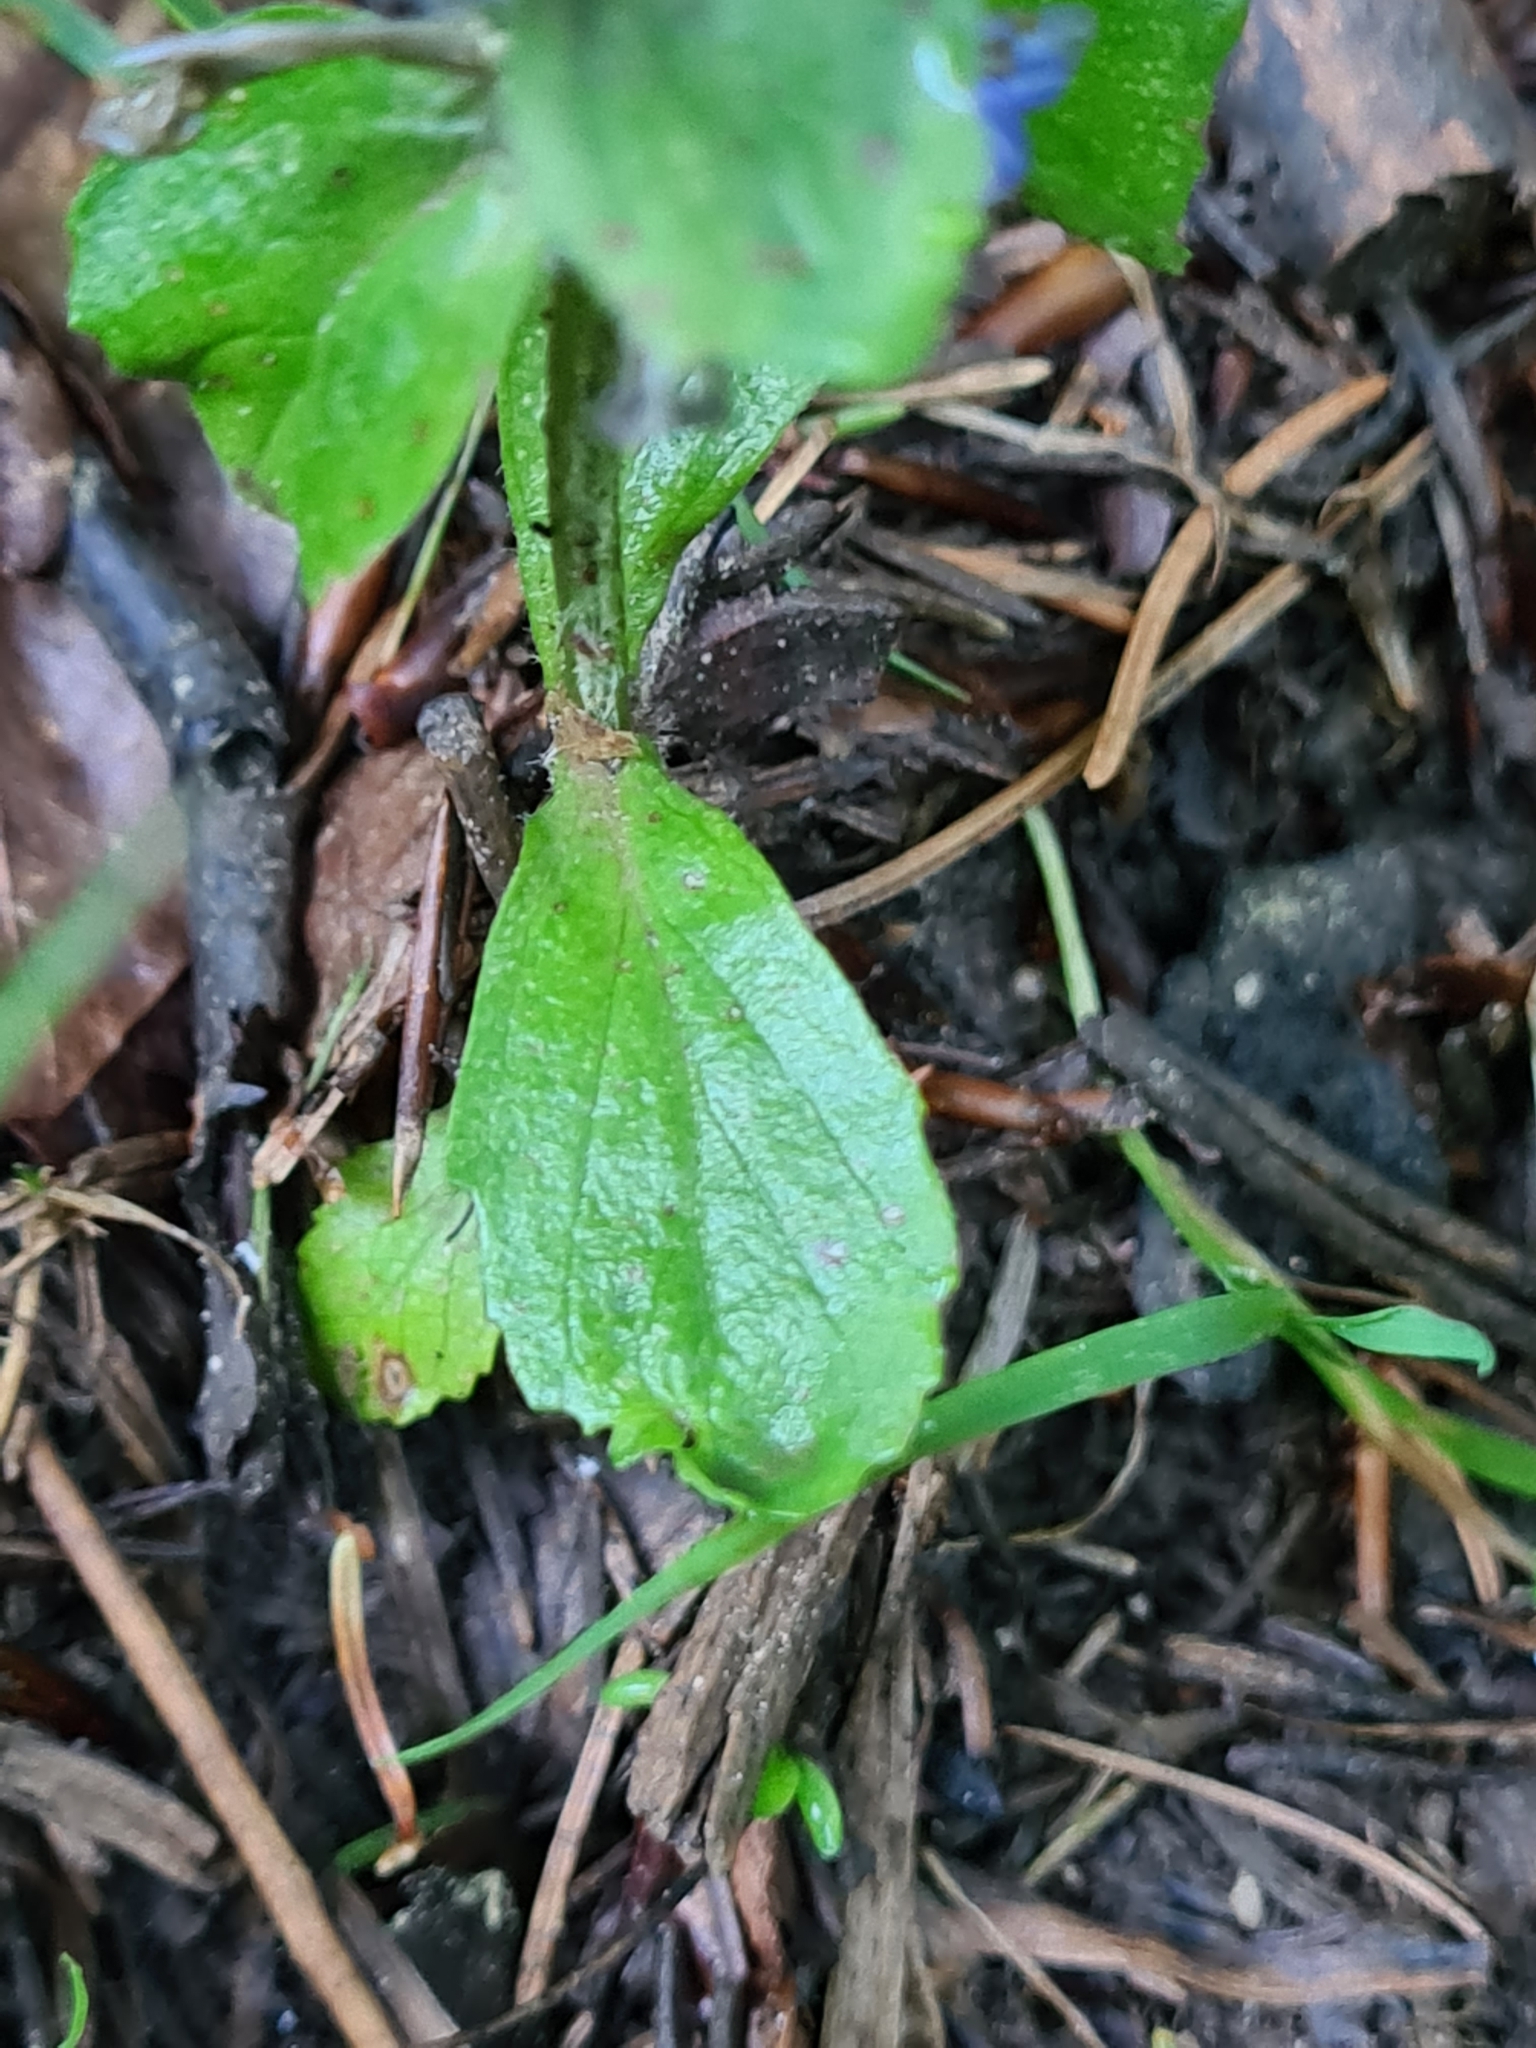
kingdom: Plantae
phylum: Tracheophyta
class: Magnoliopsida
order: Lamiales
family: Lamiaceae
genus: Ajuga
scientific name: Ajuga reptans
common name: Bugle
